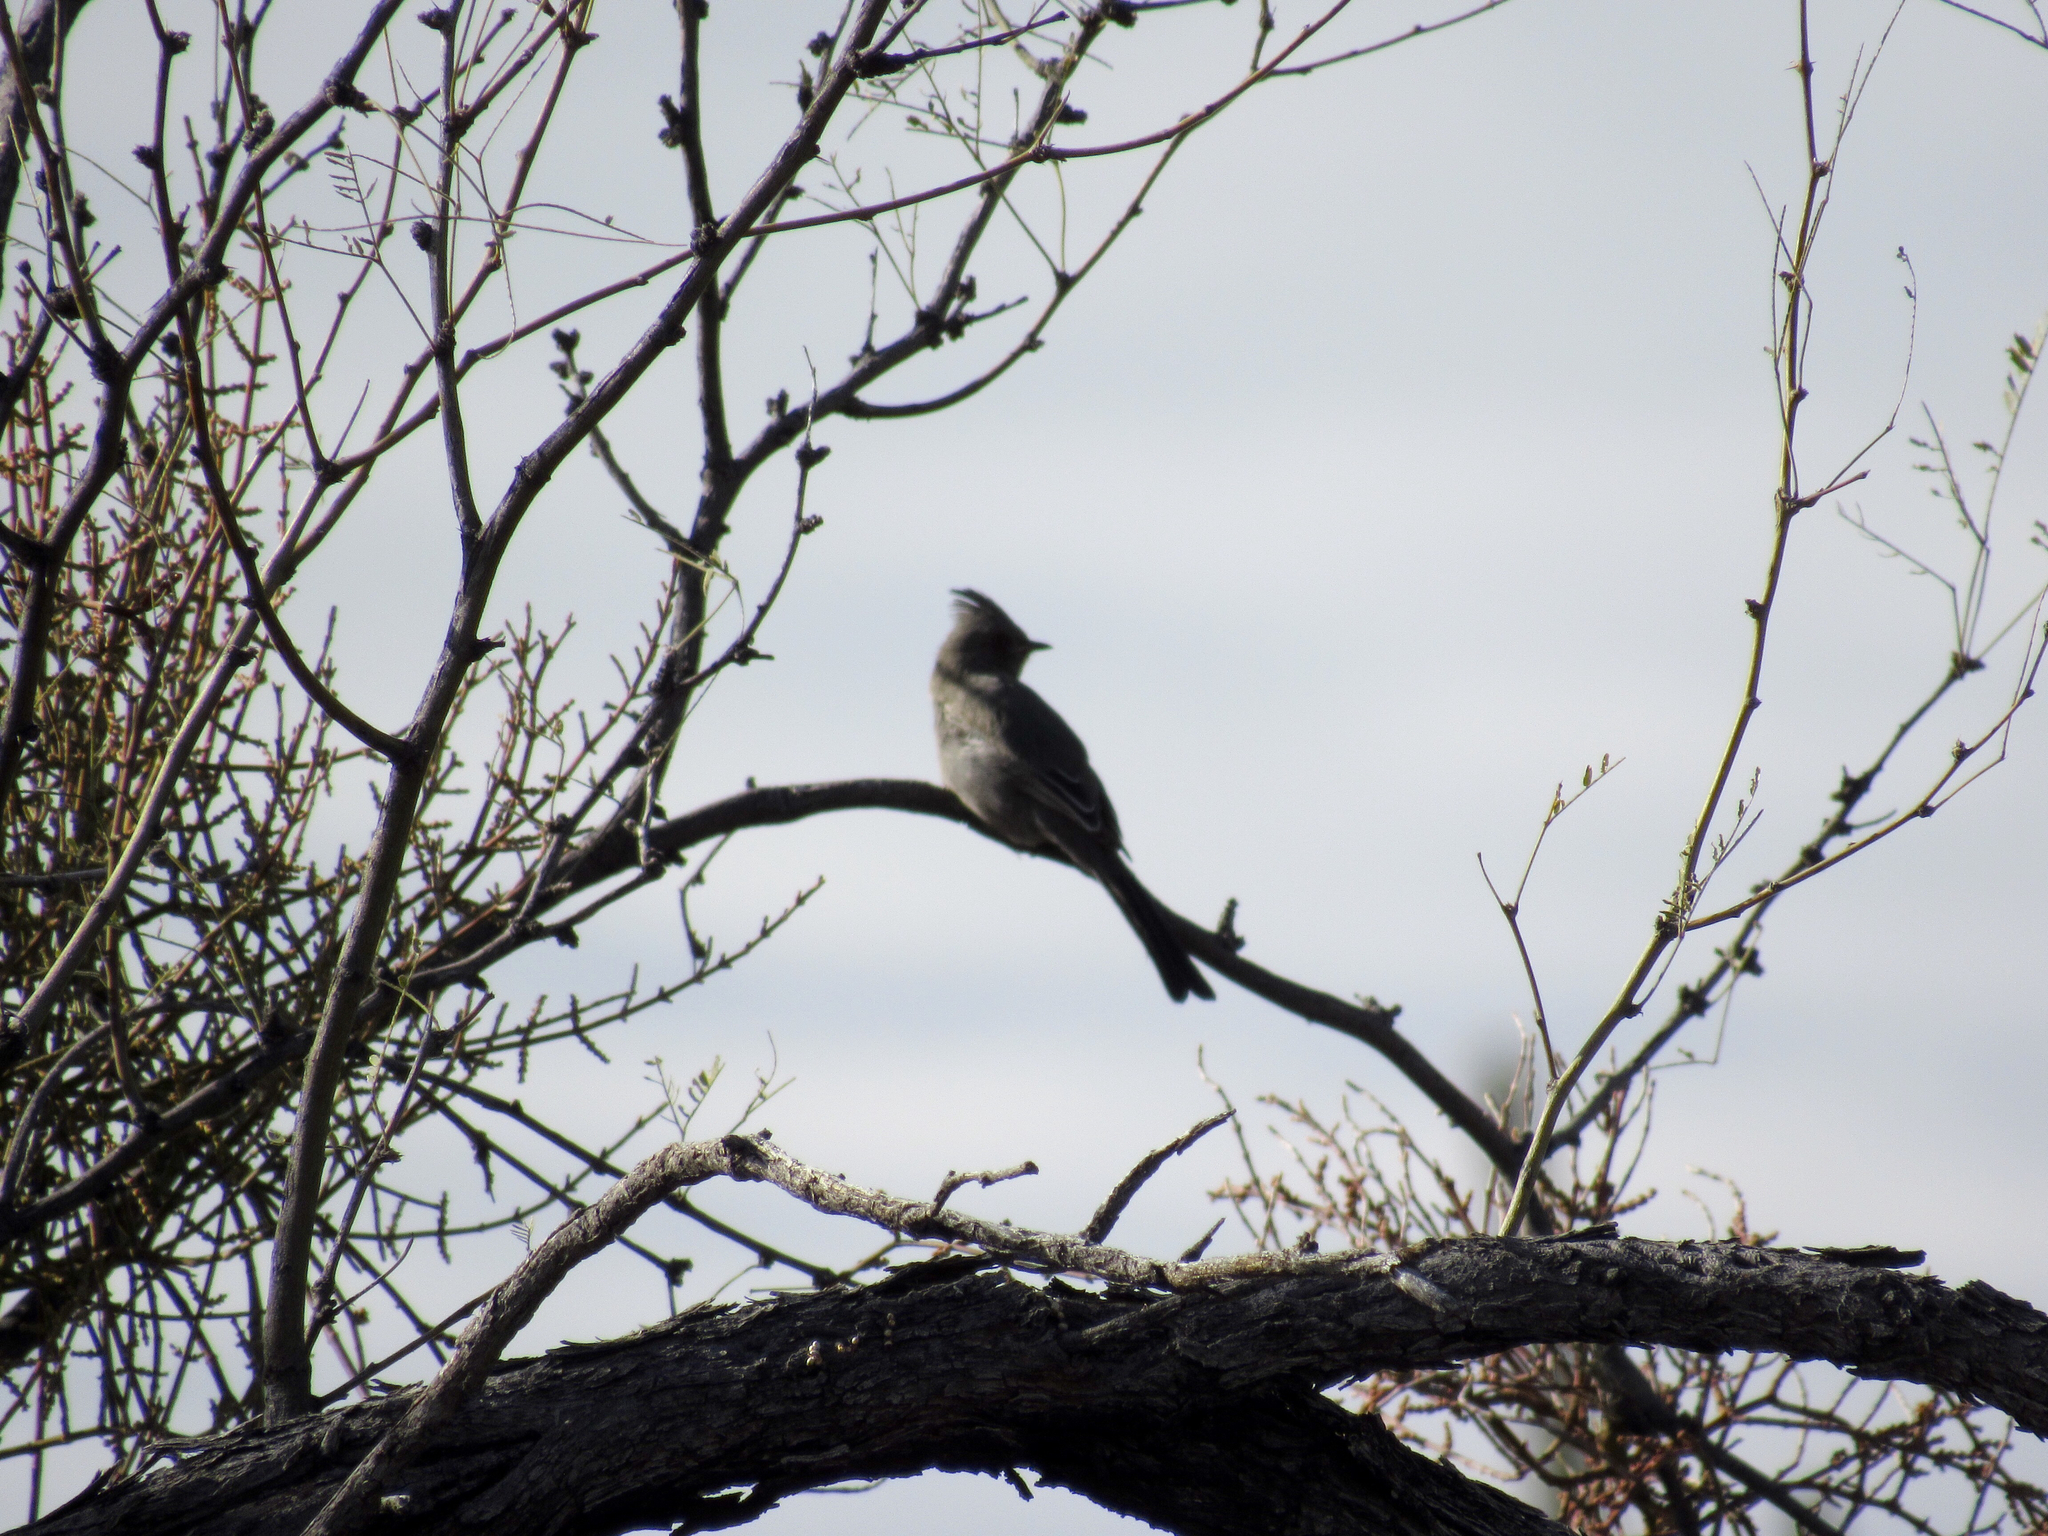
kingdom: Animalia
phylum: Chordata
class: Aves
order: Passeriformes
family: Ptilogonatidae
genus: Phainopepla
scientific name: Phainopepla nitens
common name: Phainopepla
